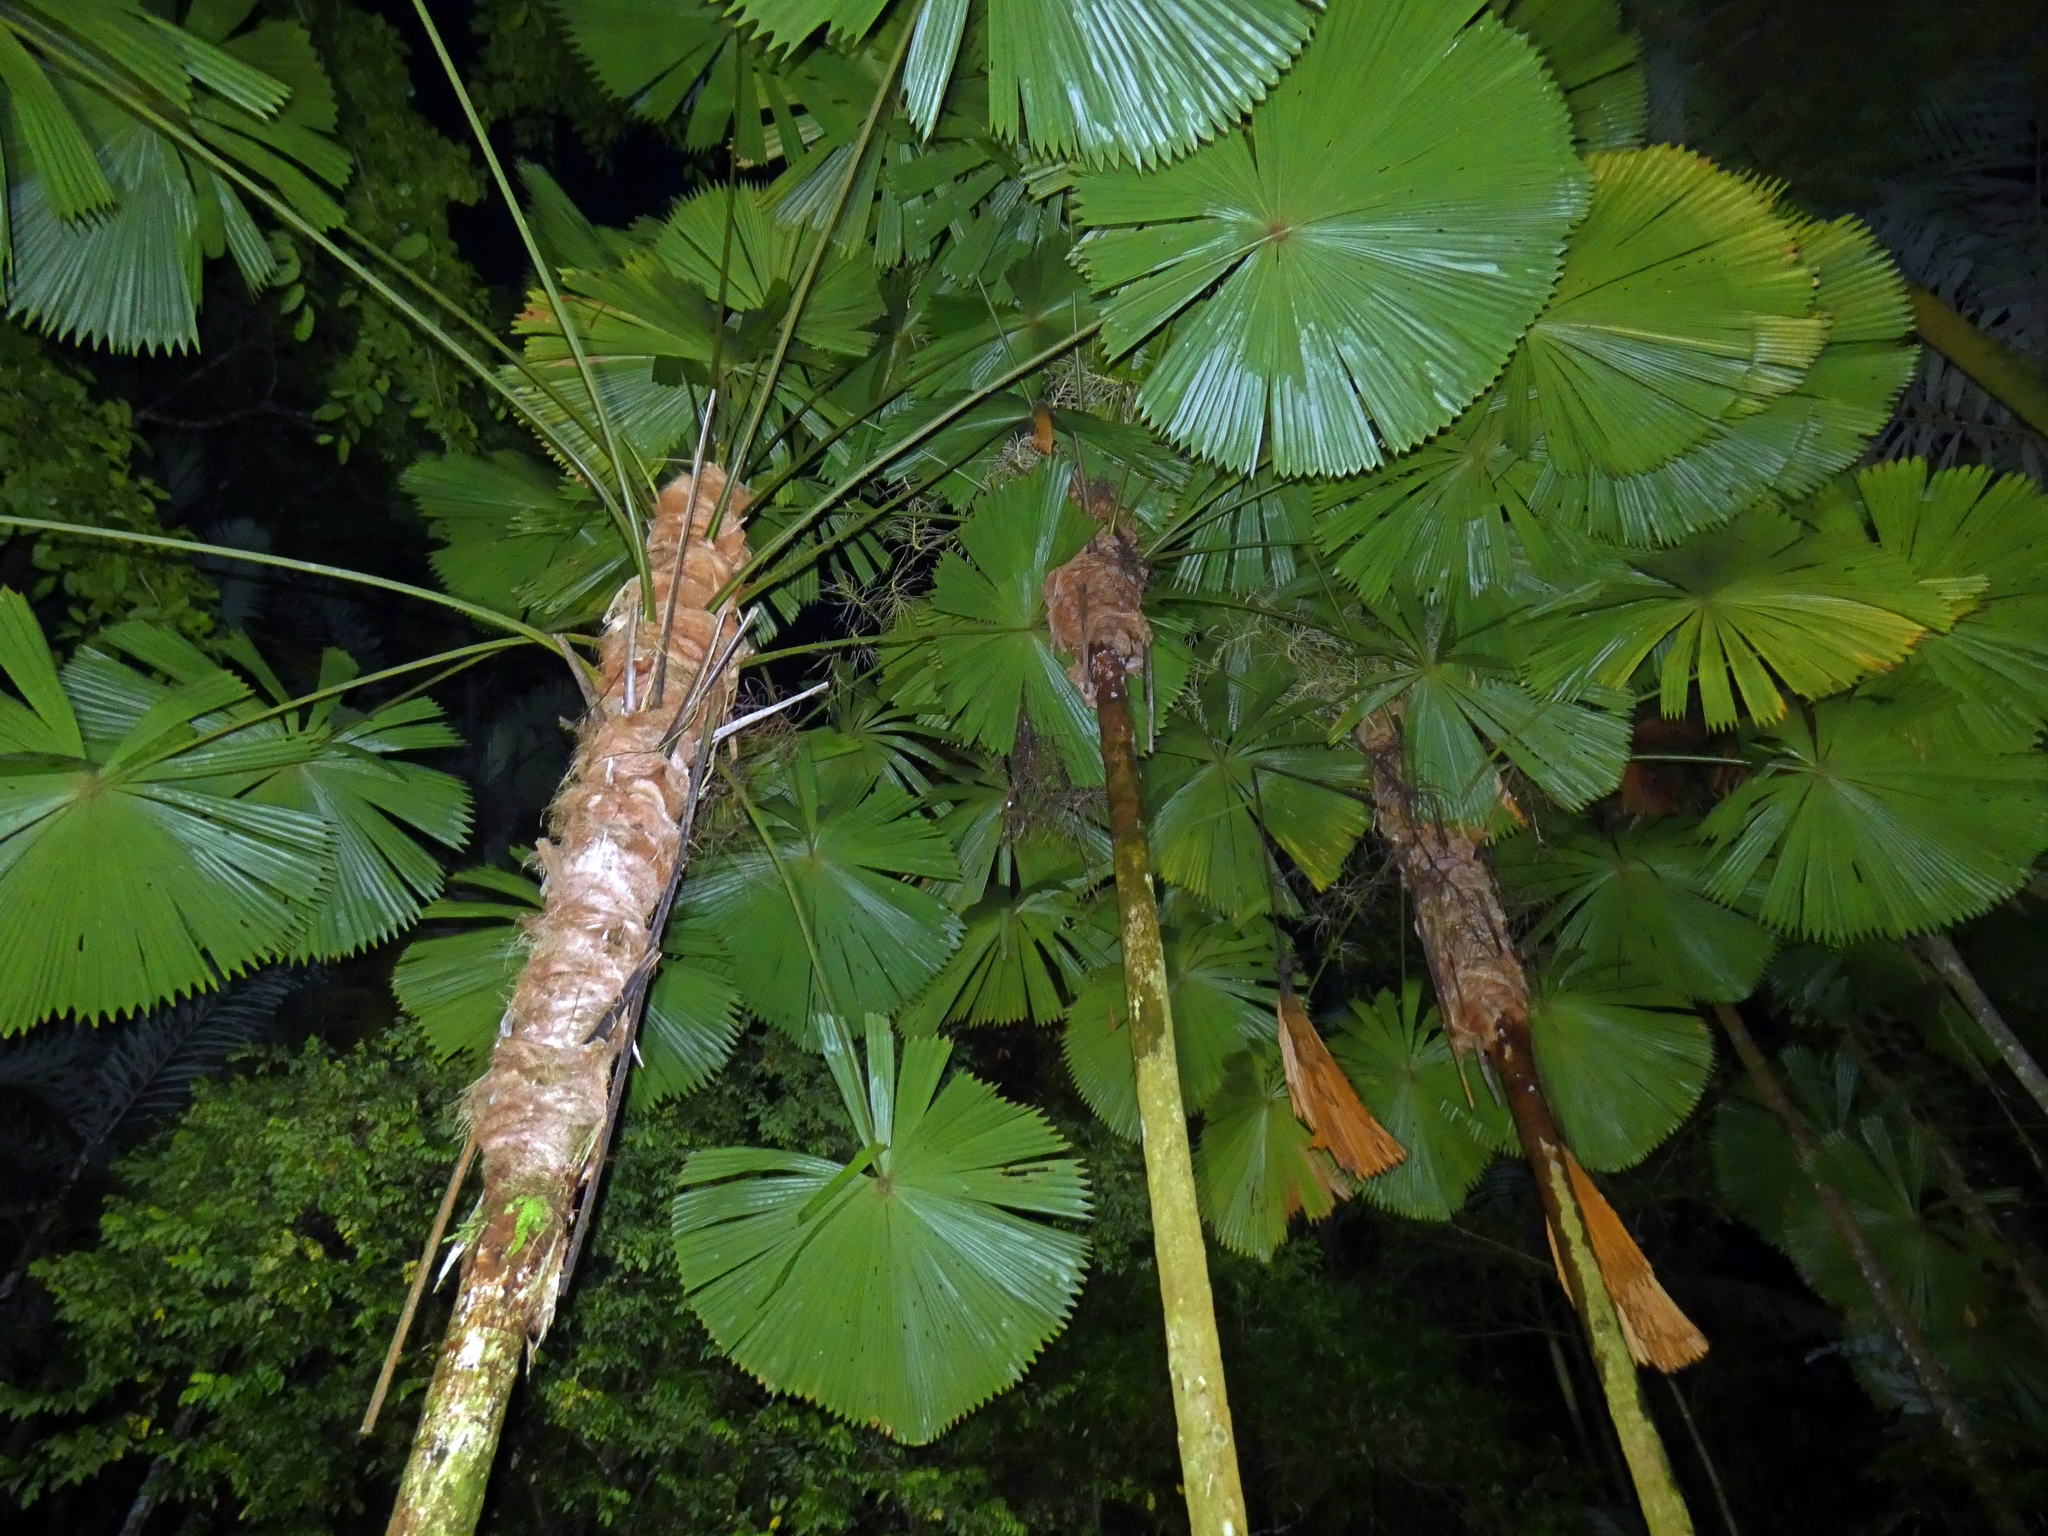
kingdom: Plantae
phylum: Tracheophyta
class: Liliopsida
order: Arecales
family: Arecaceae
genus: Licuala
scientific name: Licuala ramsayi
